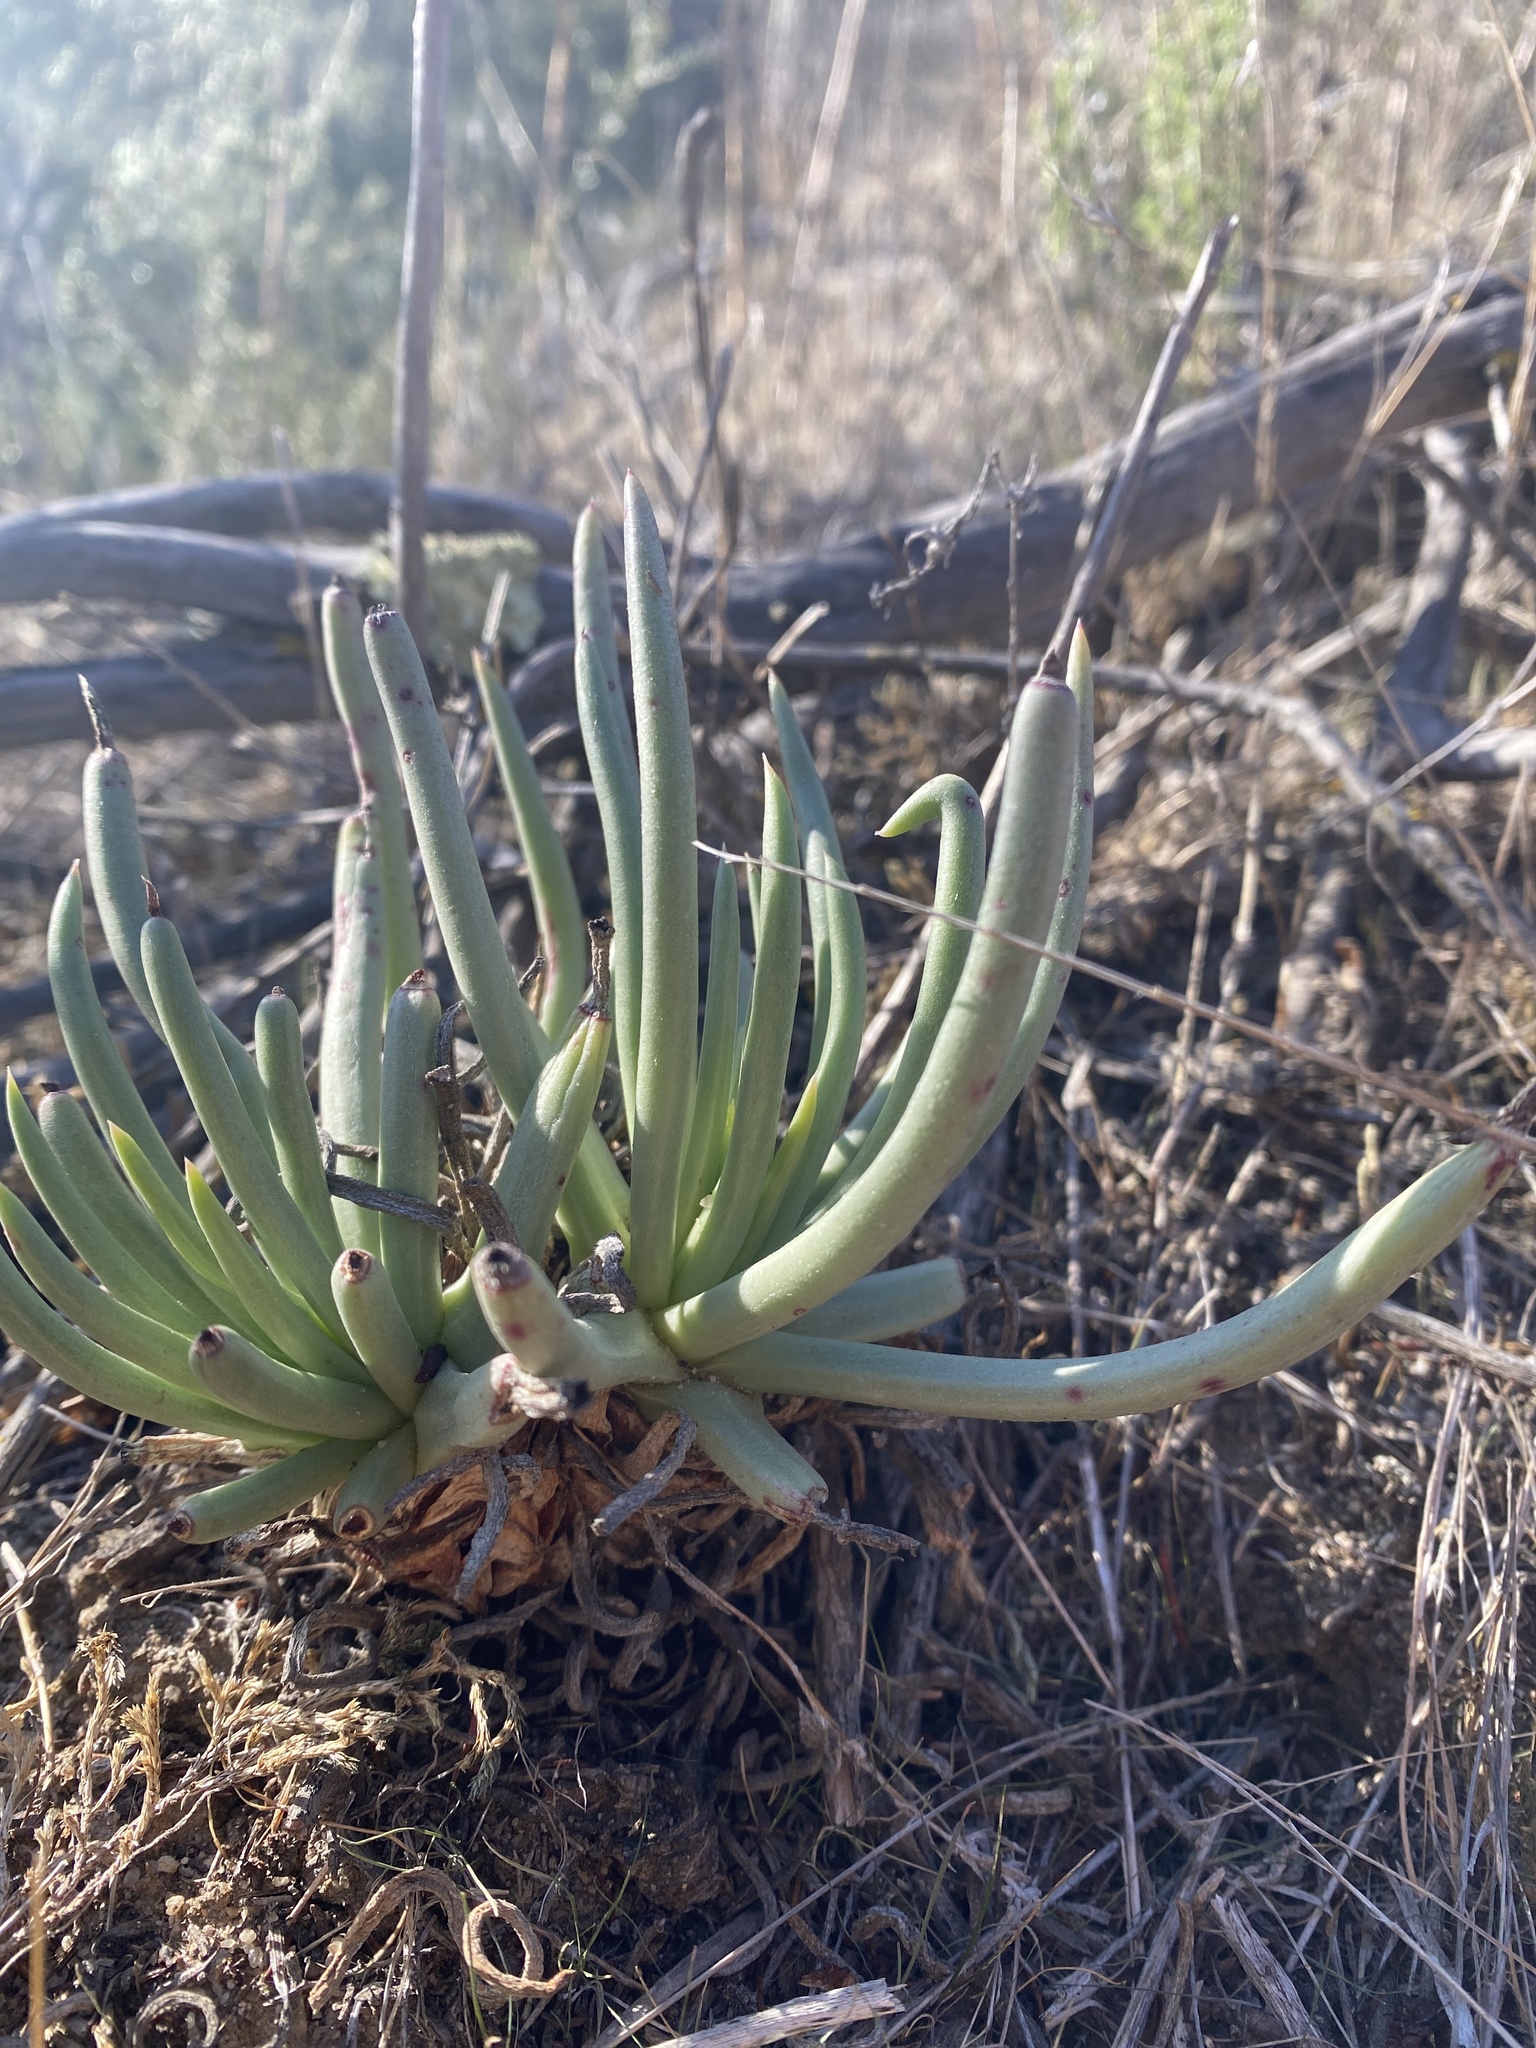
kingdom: Plantae
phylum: Tracheophyta
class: Magnoliopsida
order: Saxifragales
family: Crassulaceae
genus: Dudleya
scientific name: Dudleya edulis
